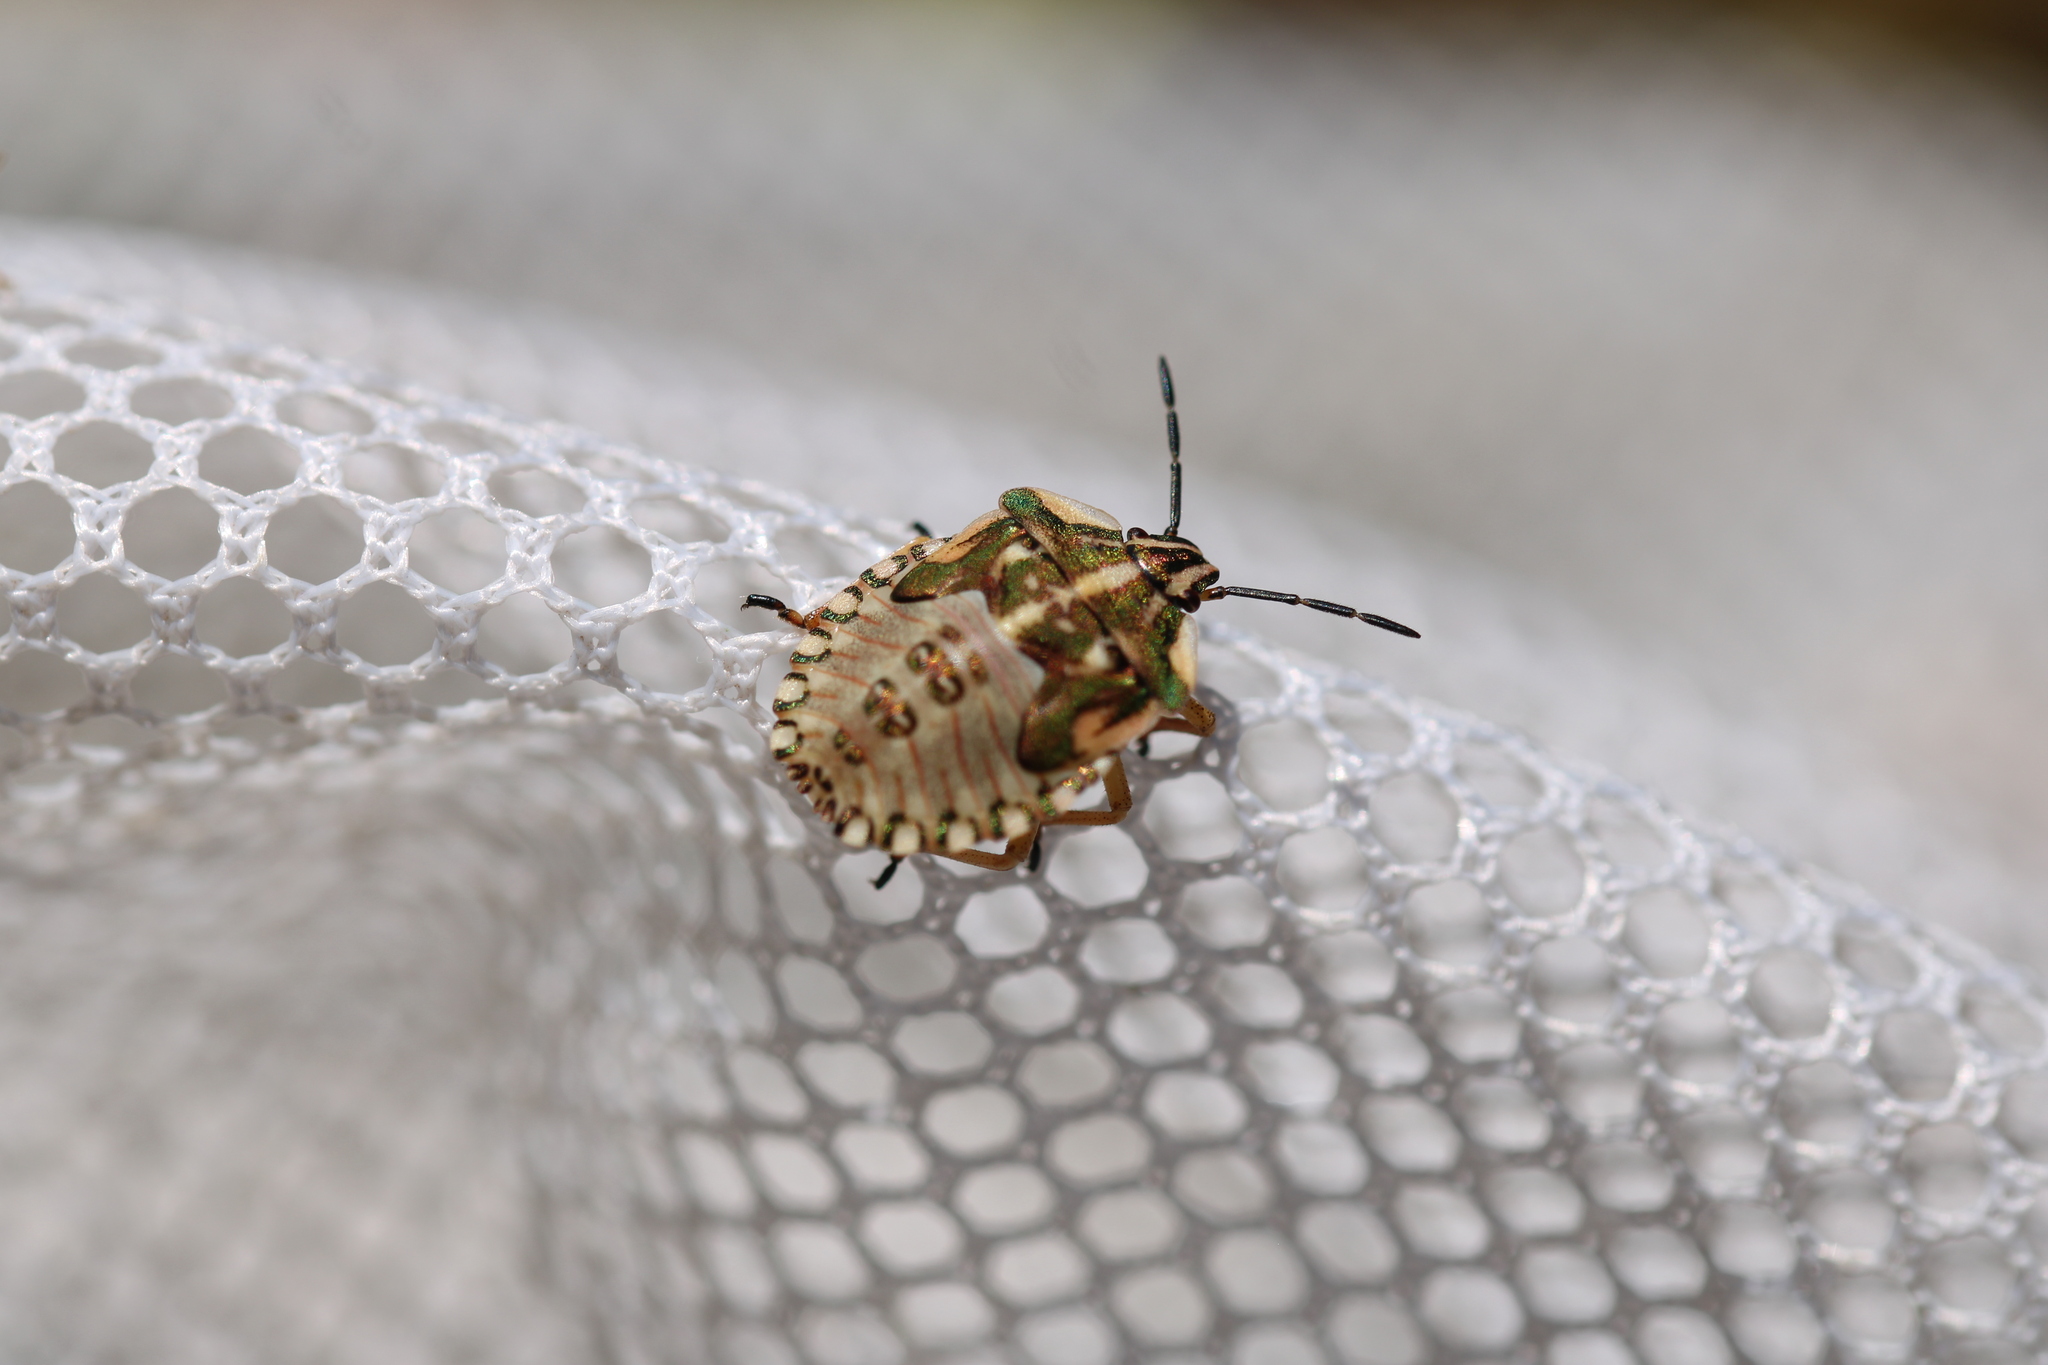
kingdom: Animalia
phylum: Arthropoda
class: Insecta
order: Hemiptera
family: Pentatomidae
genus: Carpocoris
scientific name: Carpocoris fuscispinus
